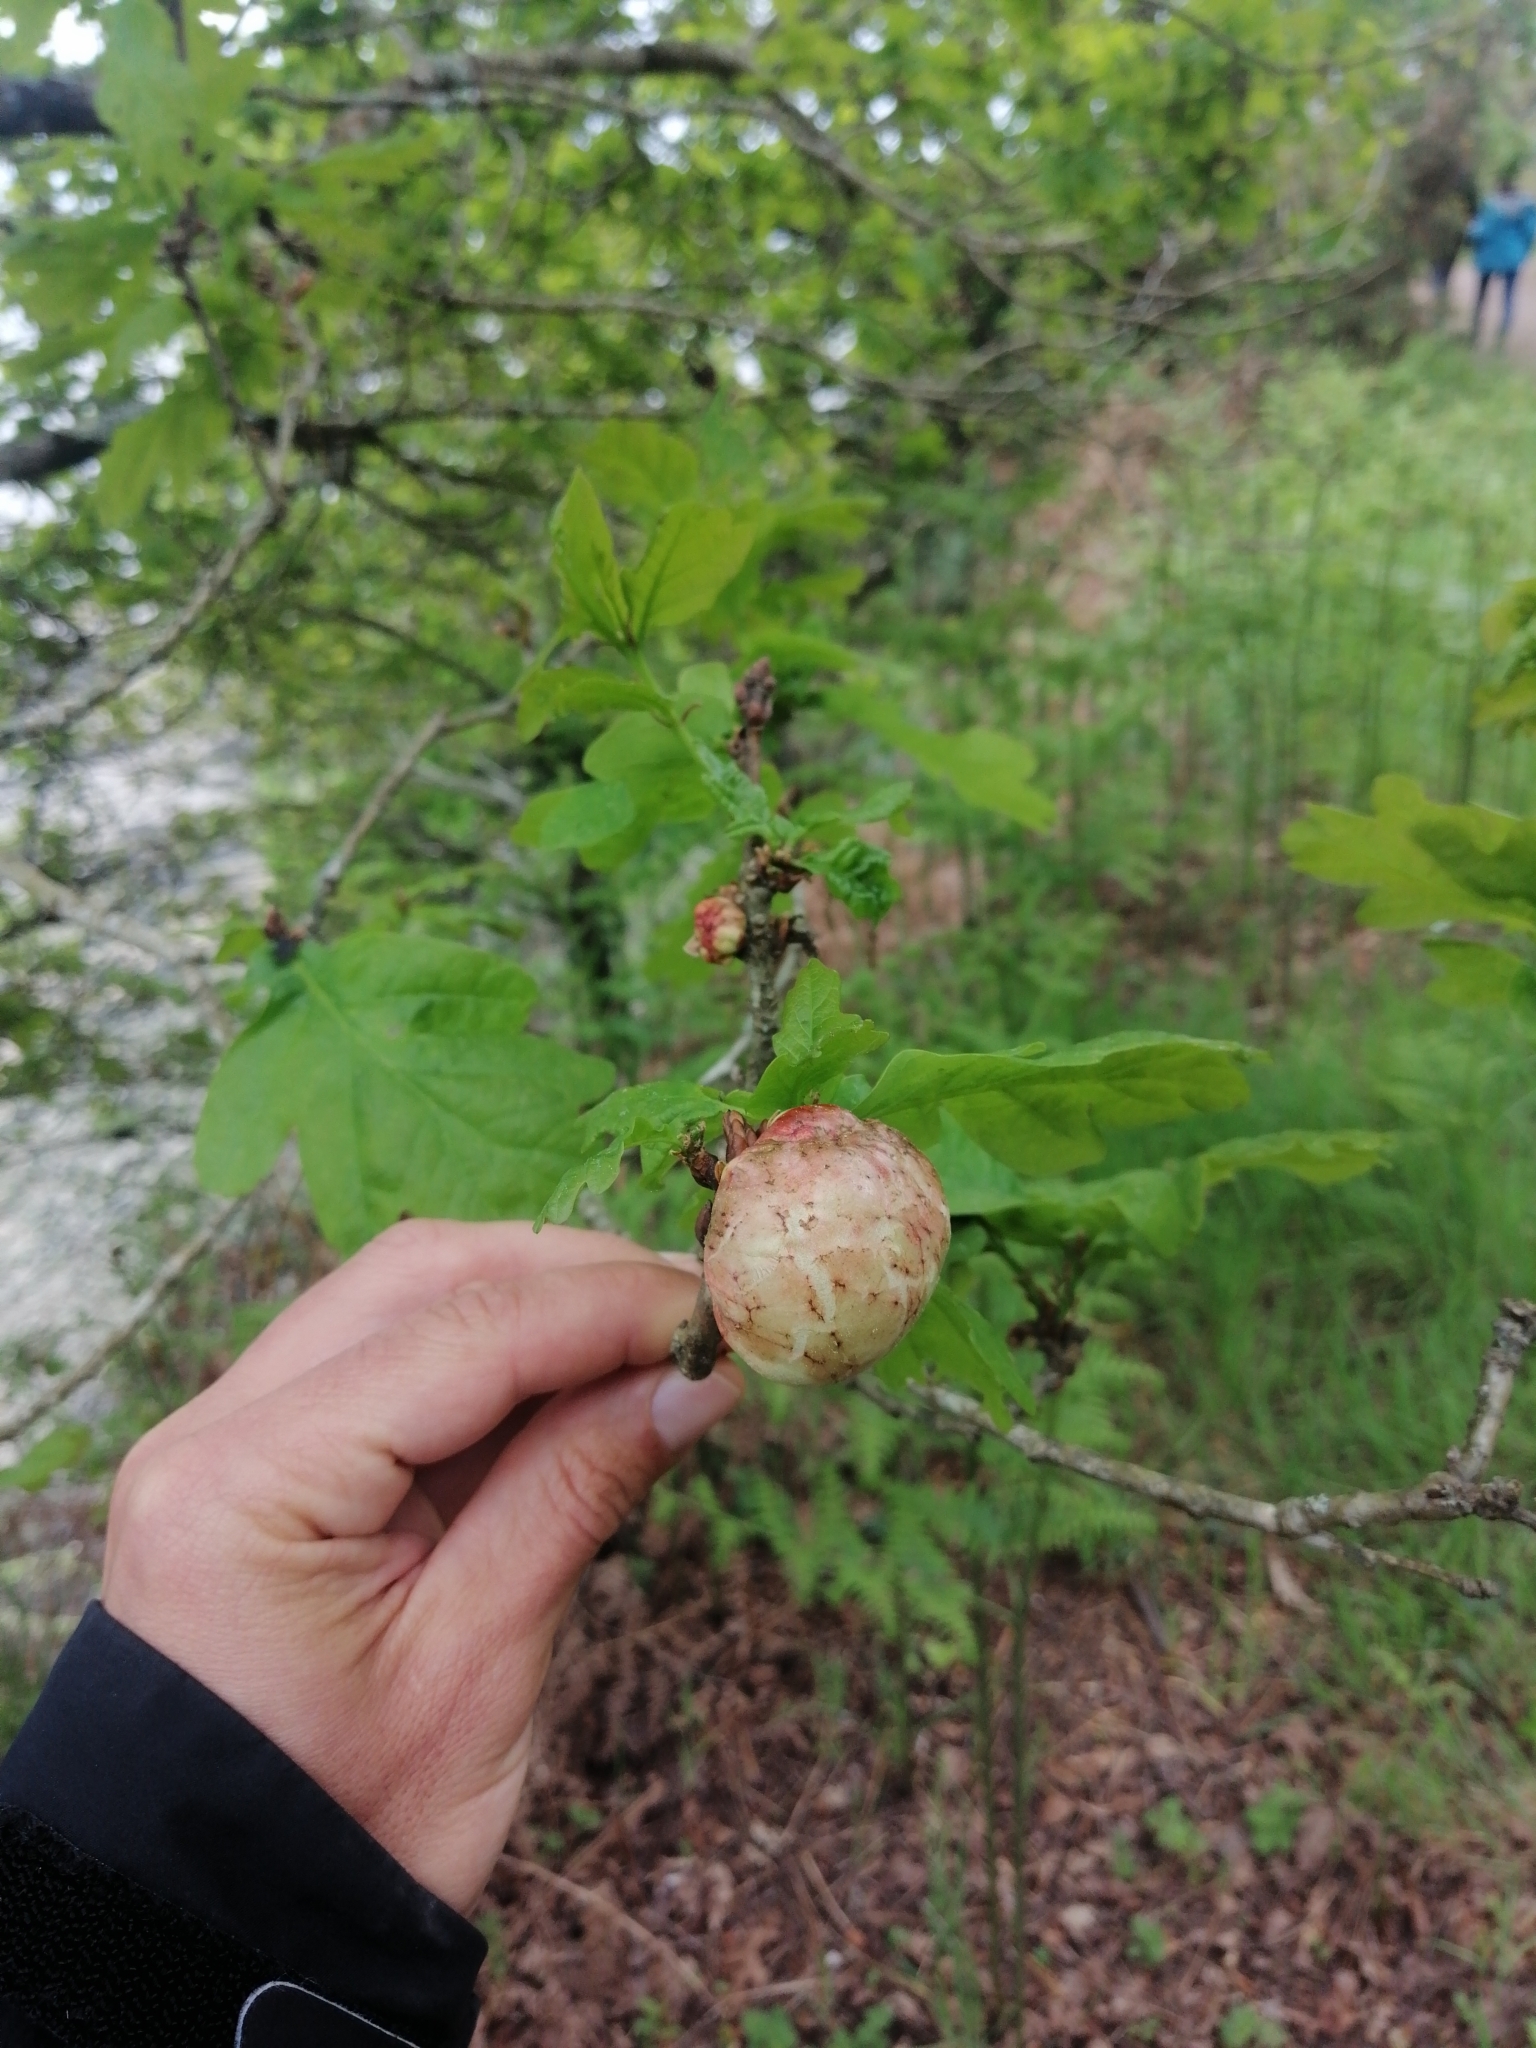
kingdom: Animalia
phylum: Arthropoda
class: Insecta
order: Hymenoptera
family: Cynipidae
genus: Biorhiza
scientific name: Biorhiza pallida
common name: Oak apple
